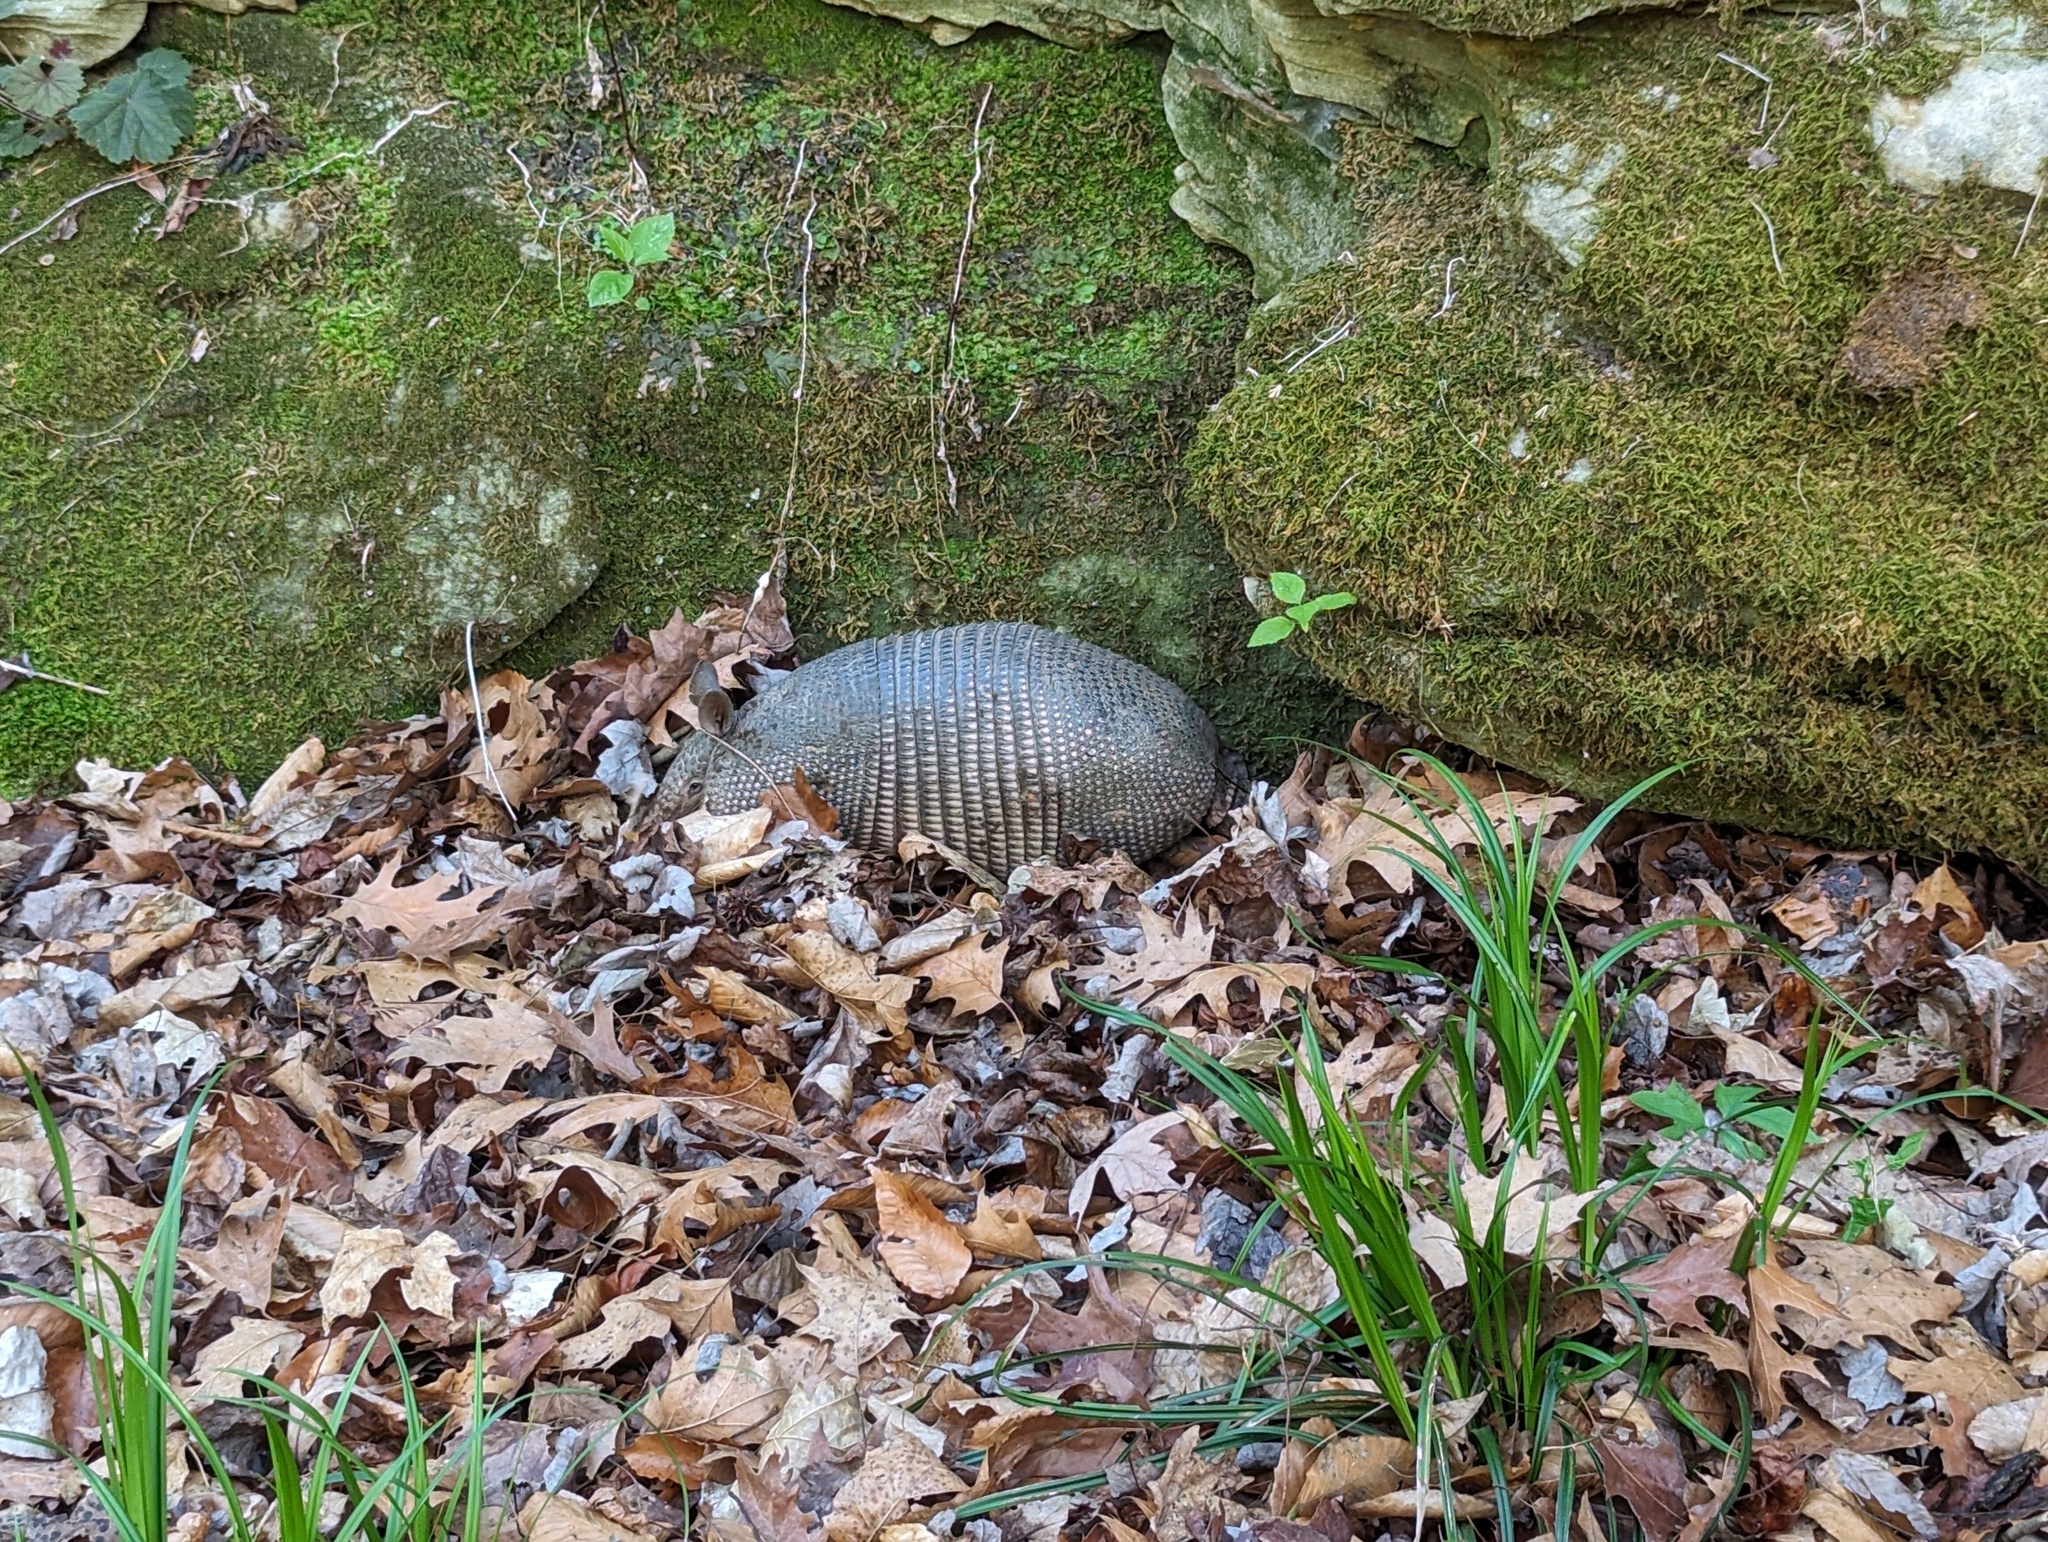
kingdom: Animalia
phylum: Chordata
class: Mammalia
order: Cingulata
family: Dasypodidae
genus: Dasypus
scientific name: Dasypus novemcinctus
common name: Nine-banded armadillo
